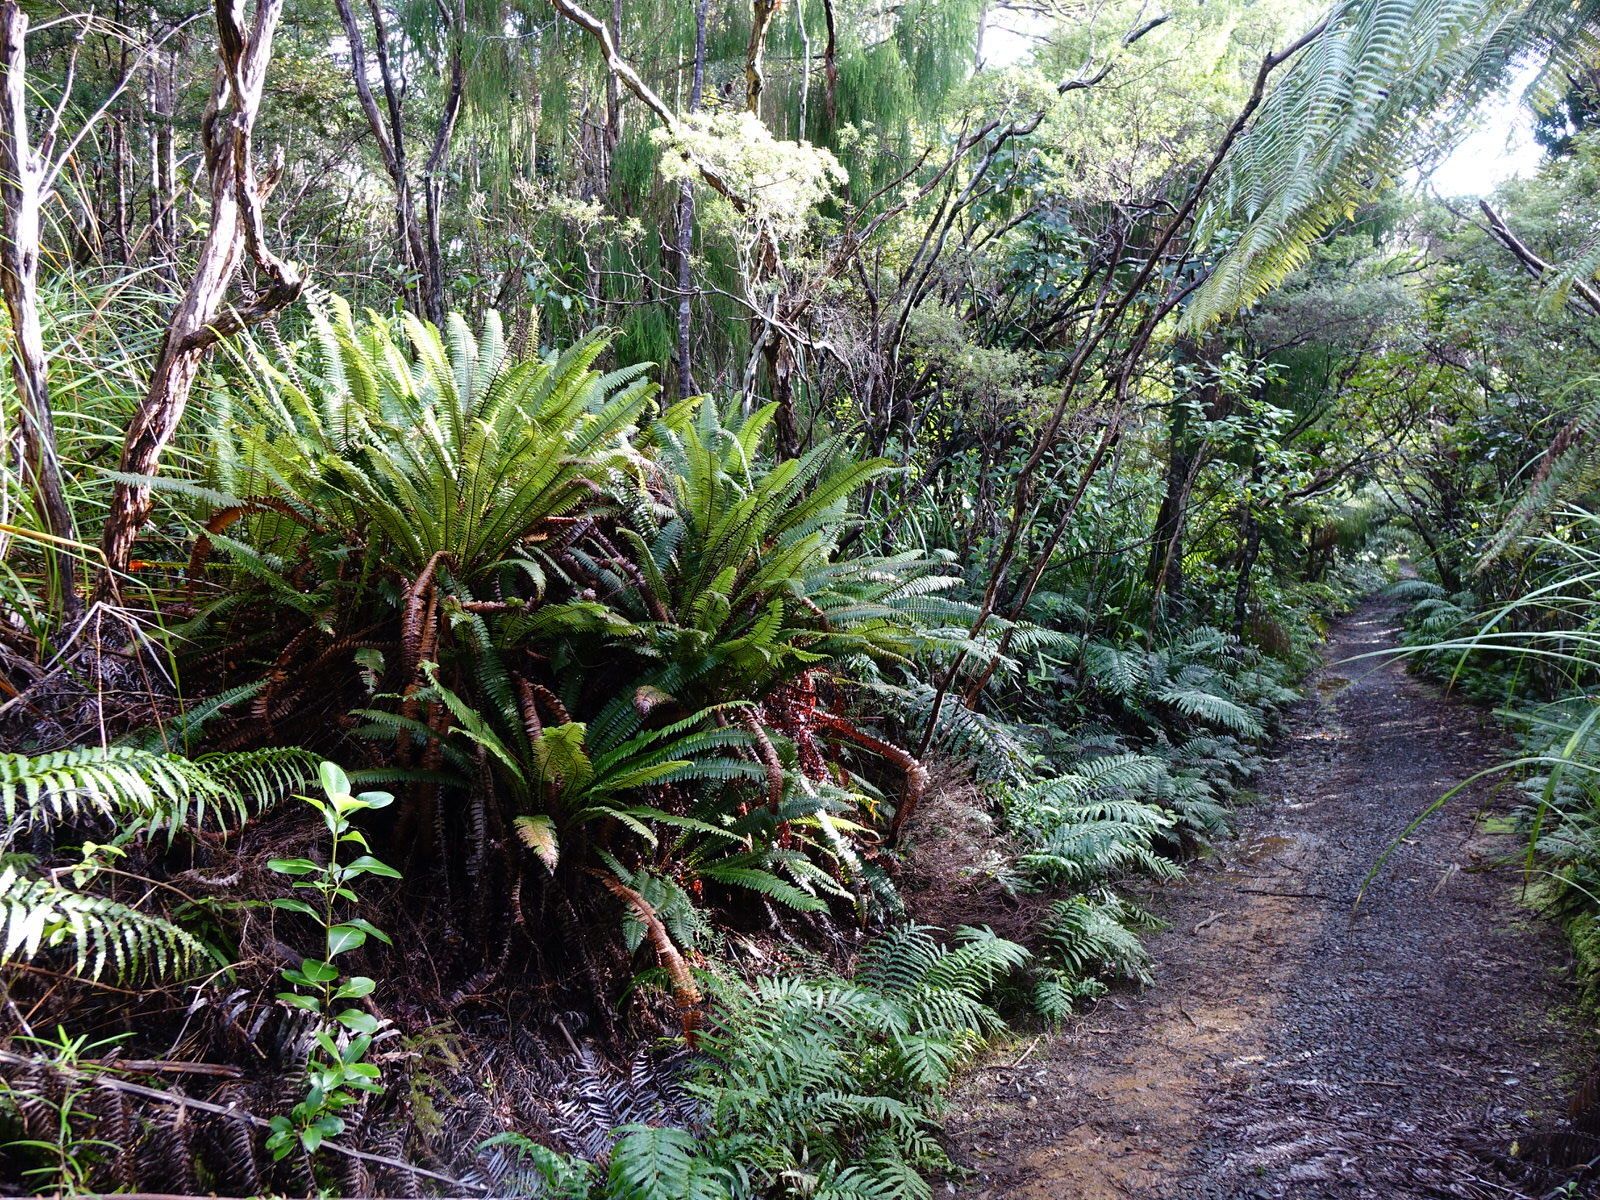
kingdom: Plantae
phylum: Tracheophyta
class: Polypodiopsida
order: Polypodiales
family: Blechnaceae
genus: Lomaria
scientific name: Lomaria discolor
